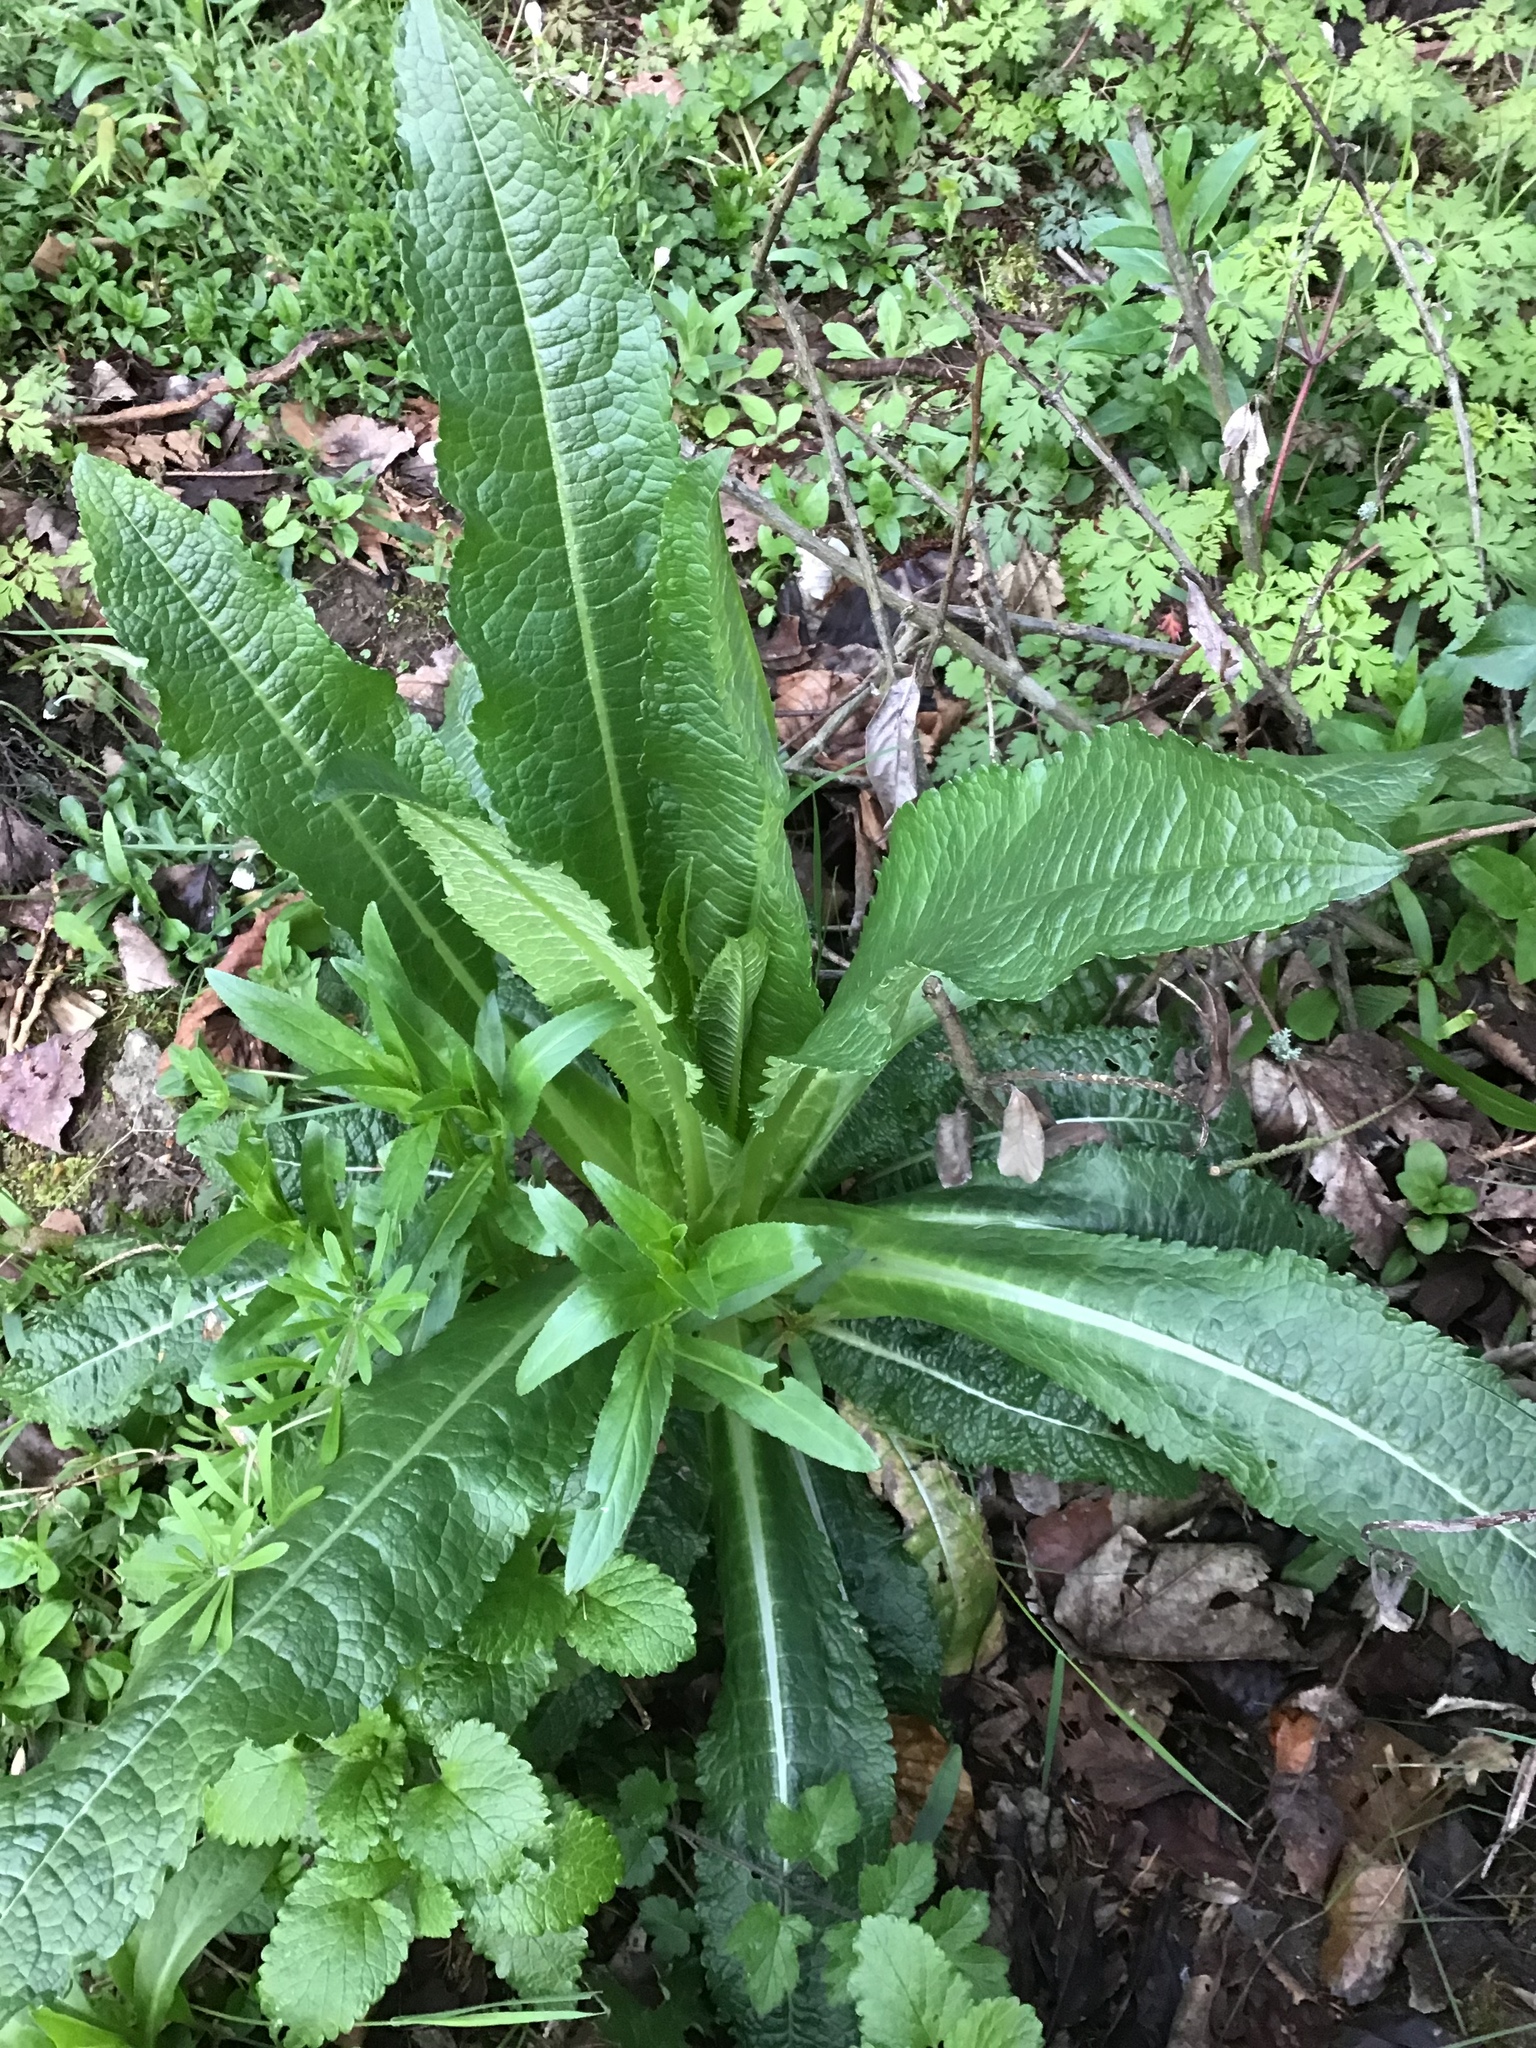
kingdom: Plantae
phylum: Tracheophyta
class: Magnoliopsida
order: Dipsacales
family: Caprifoliaceae
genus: Dipsacus
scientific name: Dipsacus fullonum
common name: Teasel
